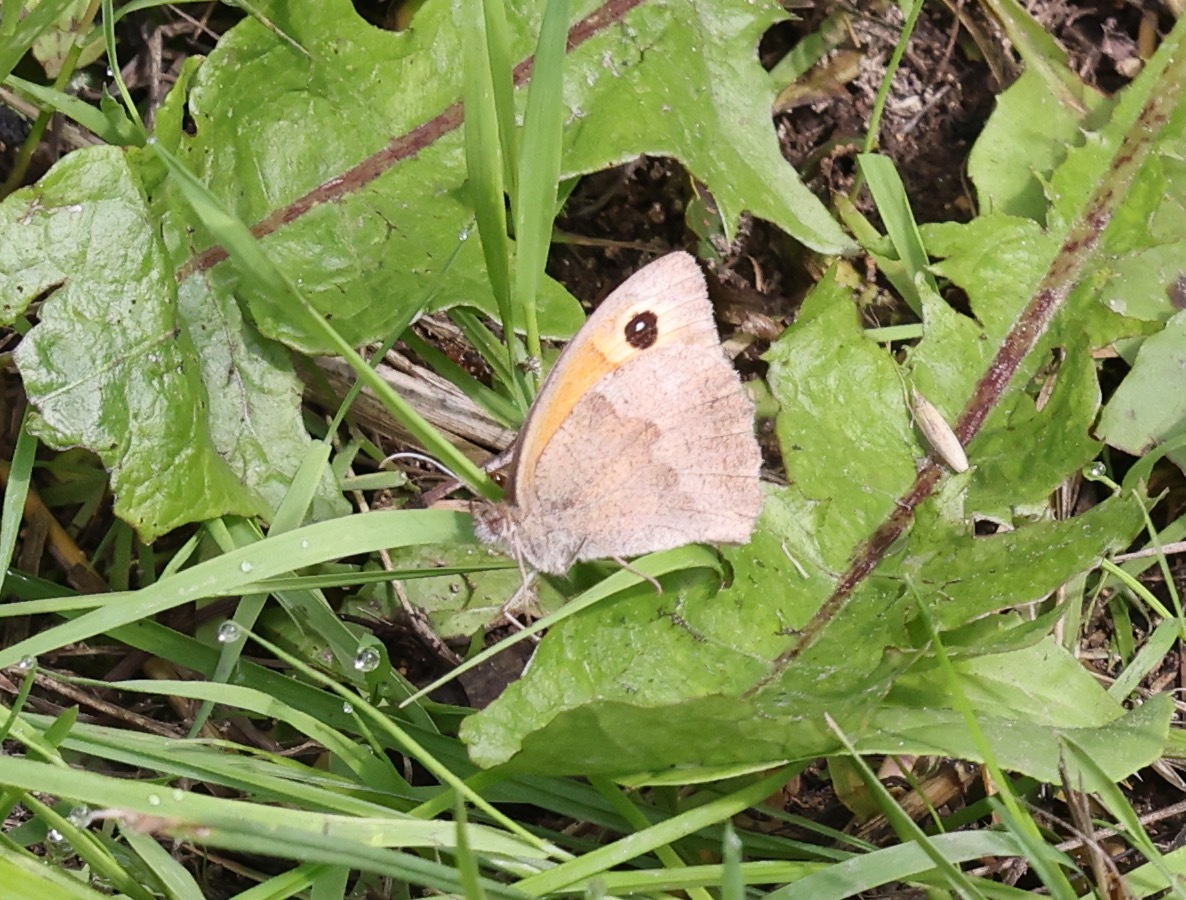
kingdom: Animalia
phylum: Arthropoda
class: Insecta
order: Lepidoptera
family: Nymphalidae
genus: Maniola
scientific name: Maniola jurtina
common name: Meadow brown
